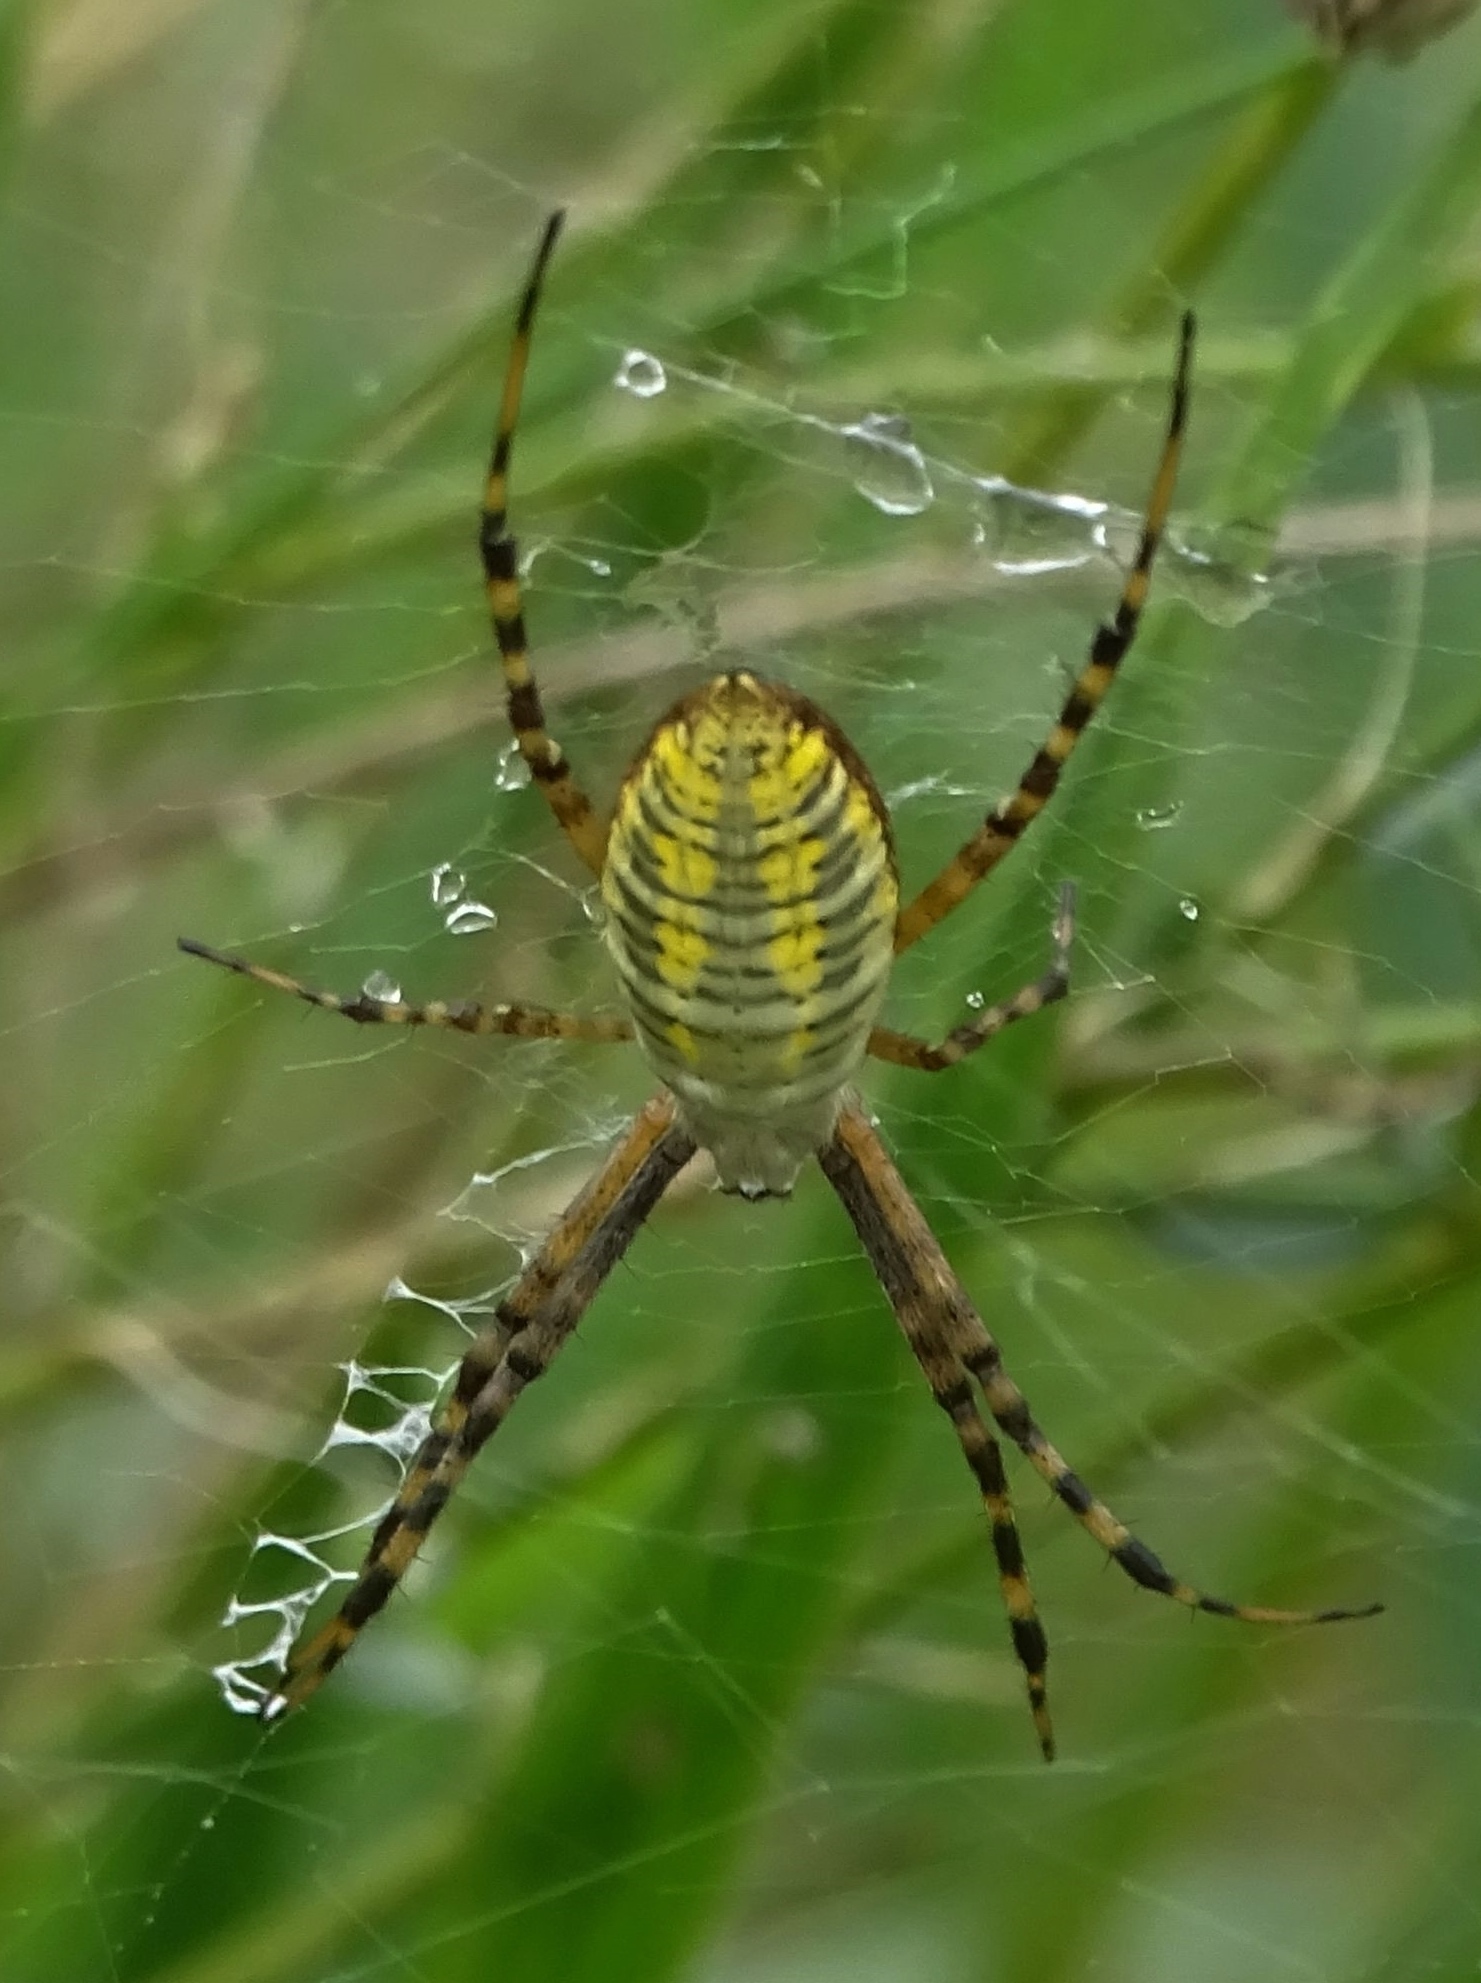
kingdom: Animalia
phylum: Arthropoda
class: Arachnida
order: Araneae
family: Araneidae
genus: Argiope
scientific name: Argiope trifasciata
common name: Banded garden spider
